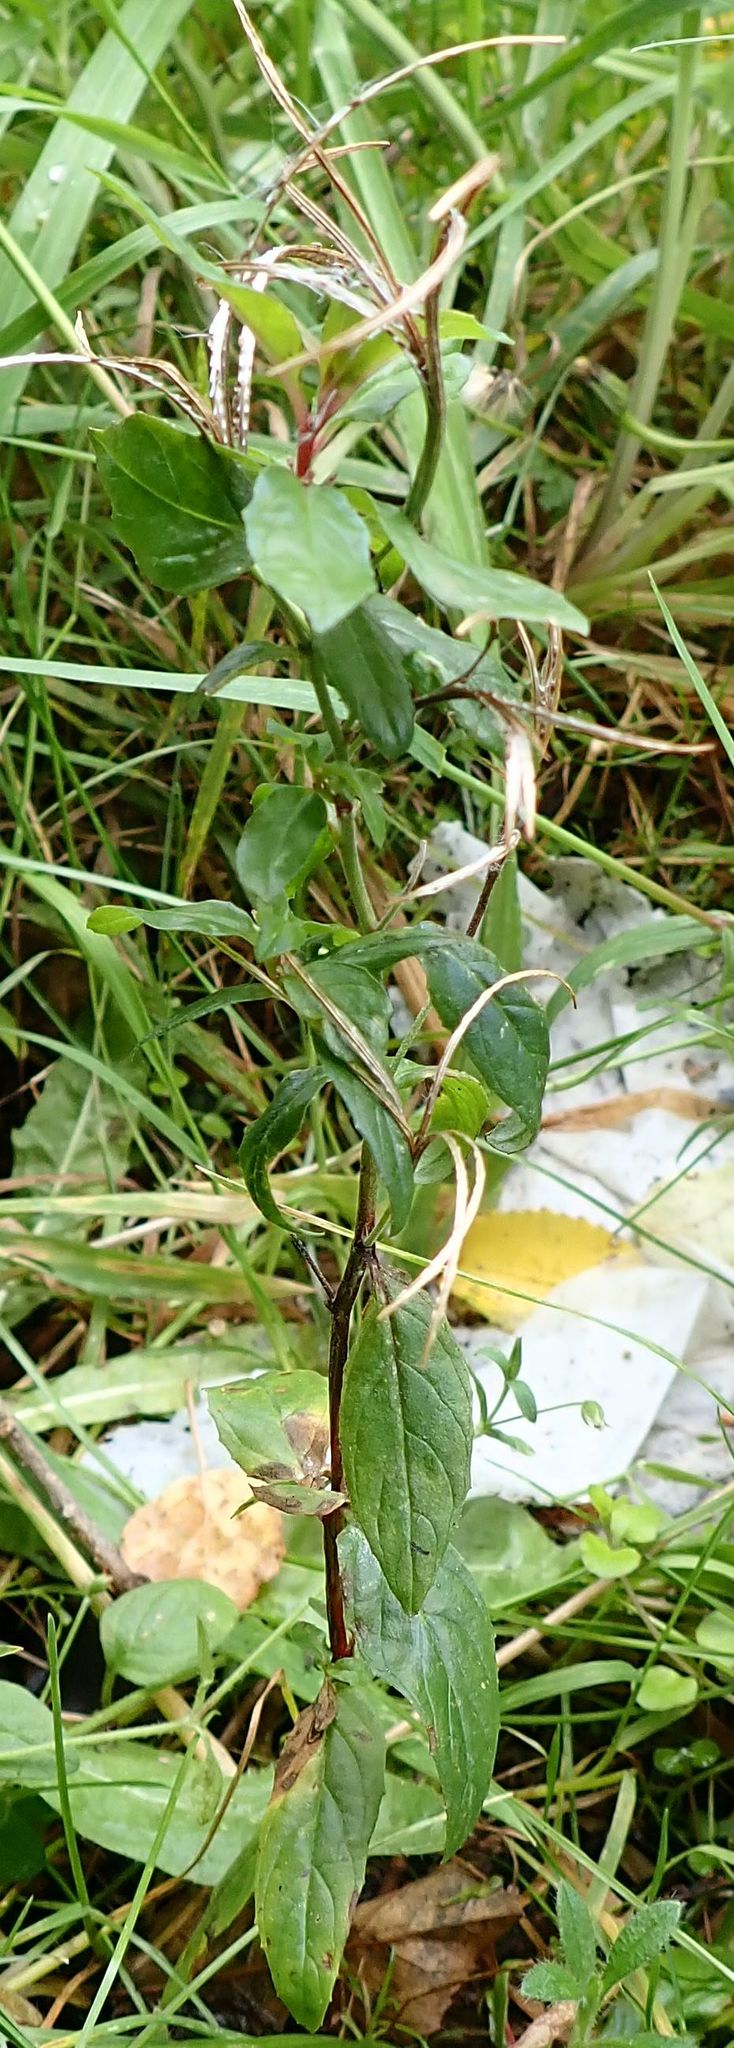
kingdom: Plantae
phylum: Tracheophyta
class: Magnoliopsida
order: Myrtales
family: Onagraceae
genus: Epilobium
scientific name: Epilobium ciliatum
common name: American willowherb
